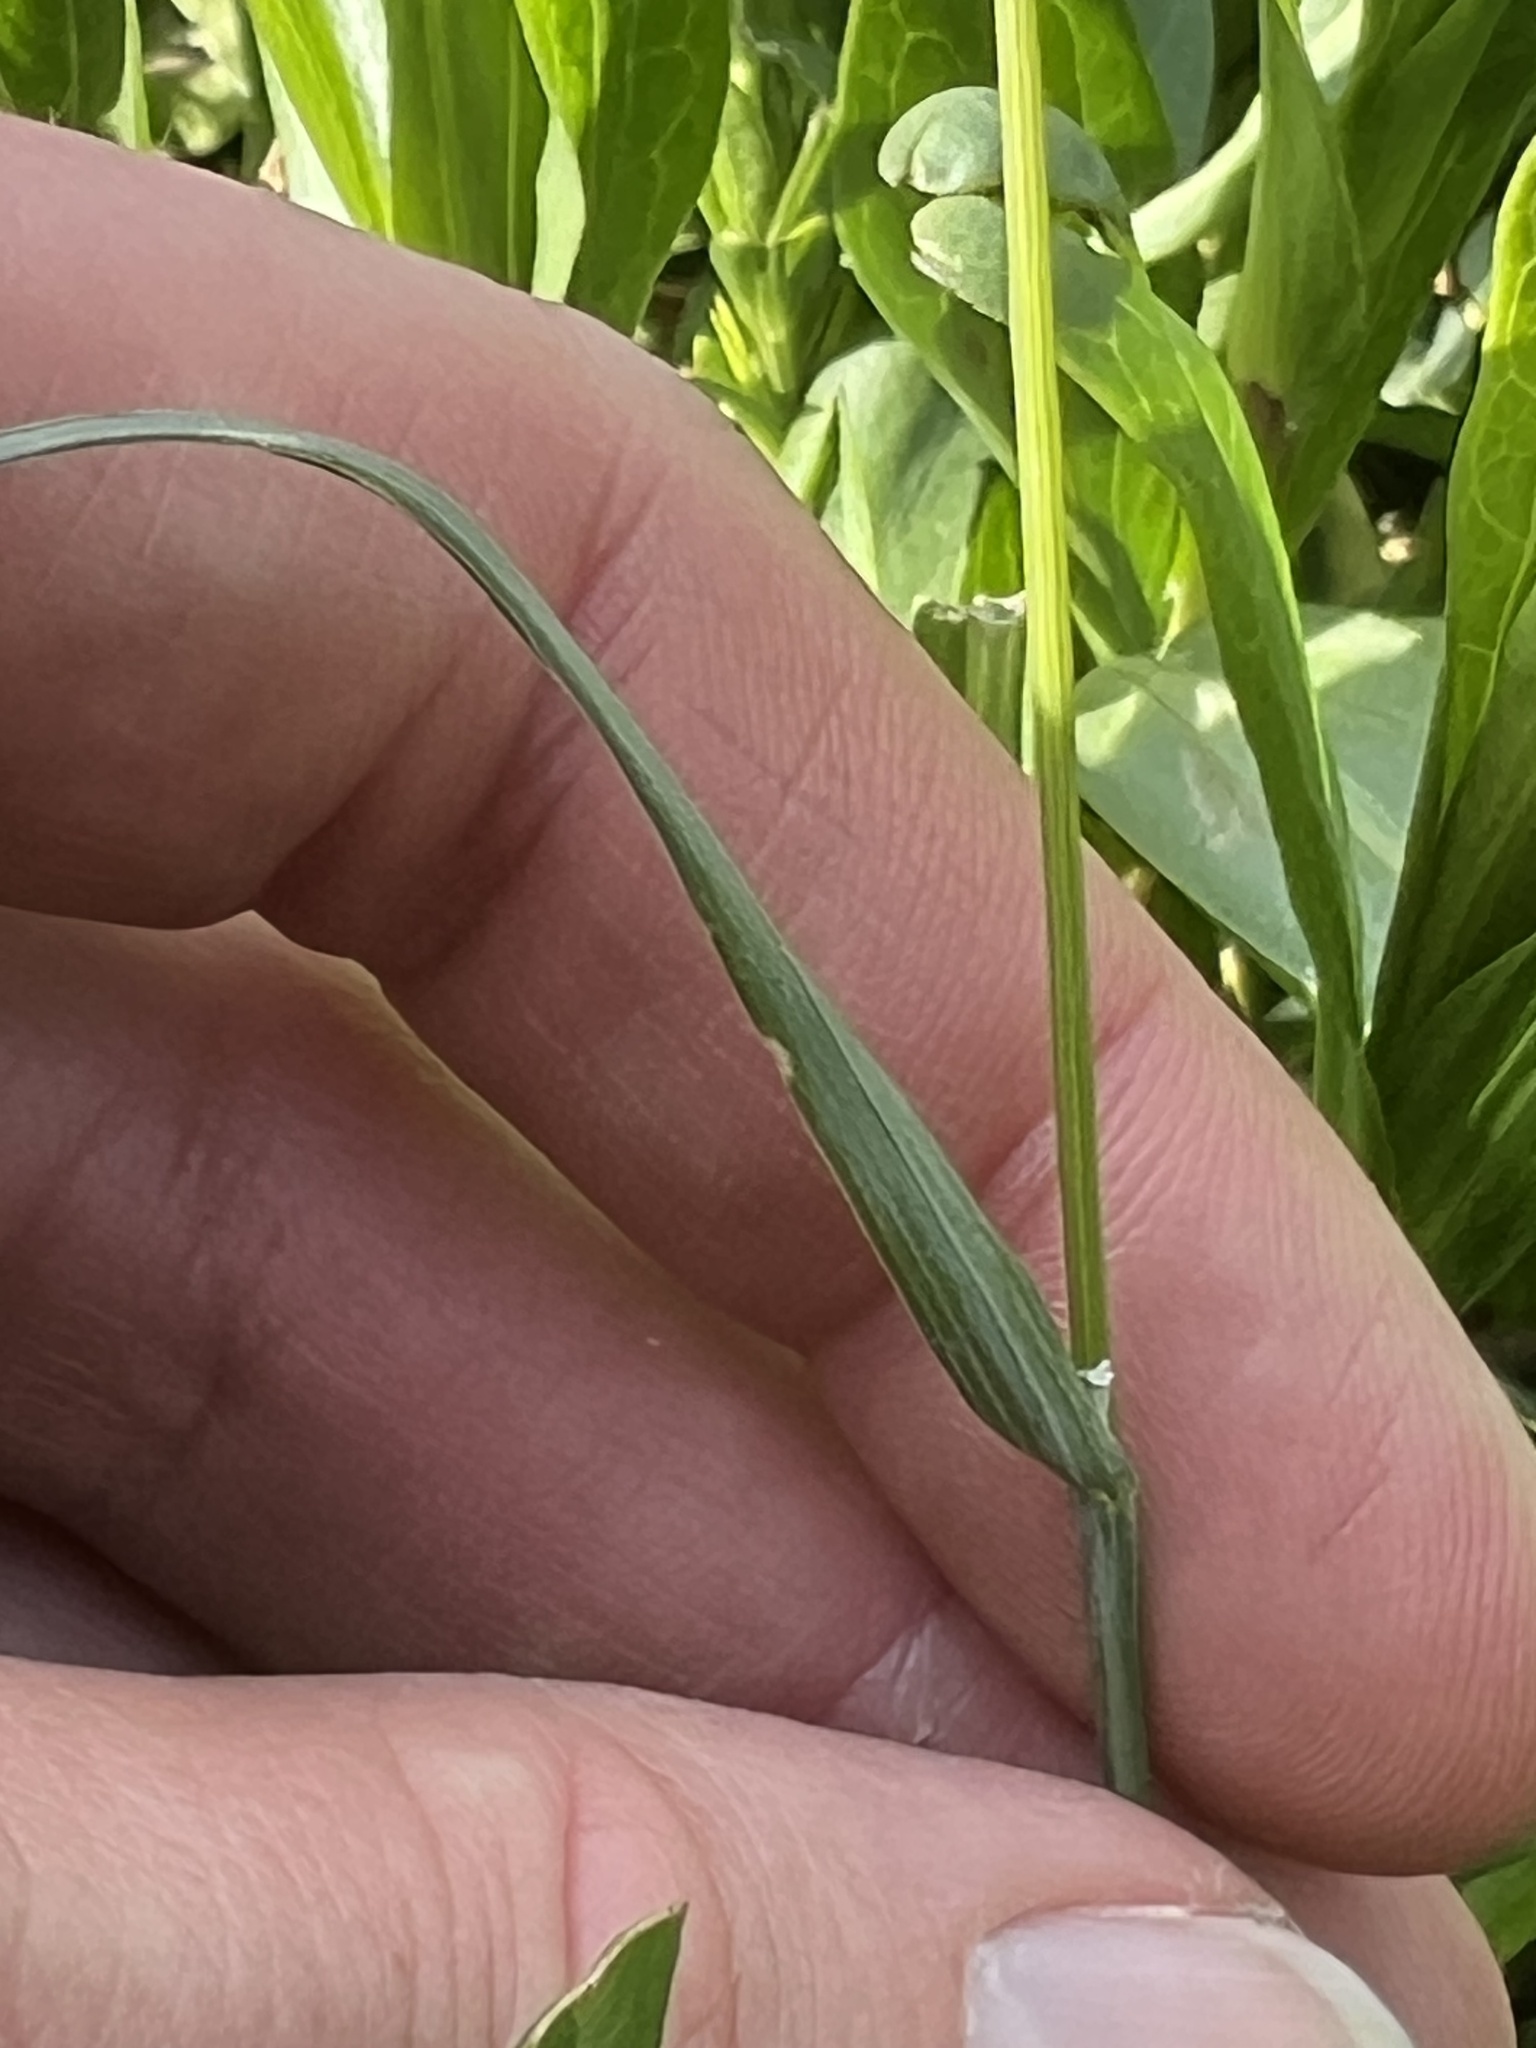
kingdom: Plantae
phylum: Tracheophyta
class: Liliopsida
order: Poales
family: Poaceae
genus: Poa
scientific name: Poa bulbosa
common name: Bulbous bluegrass
